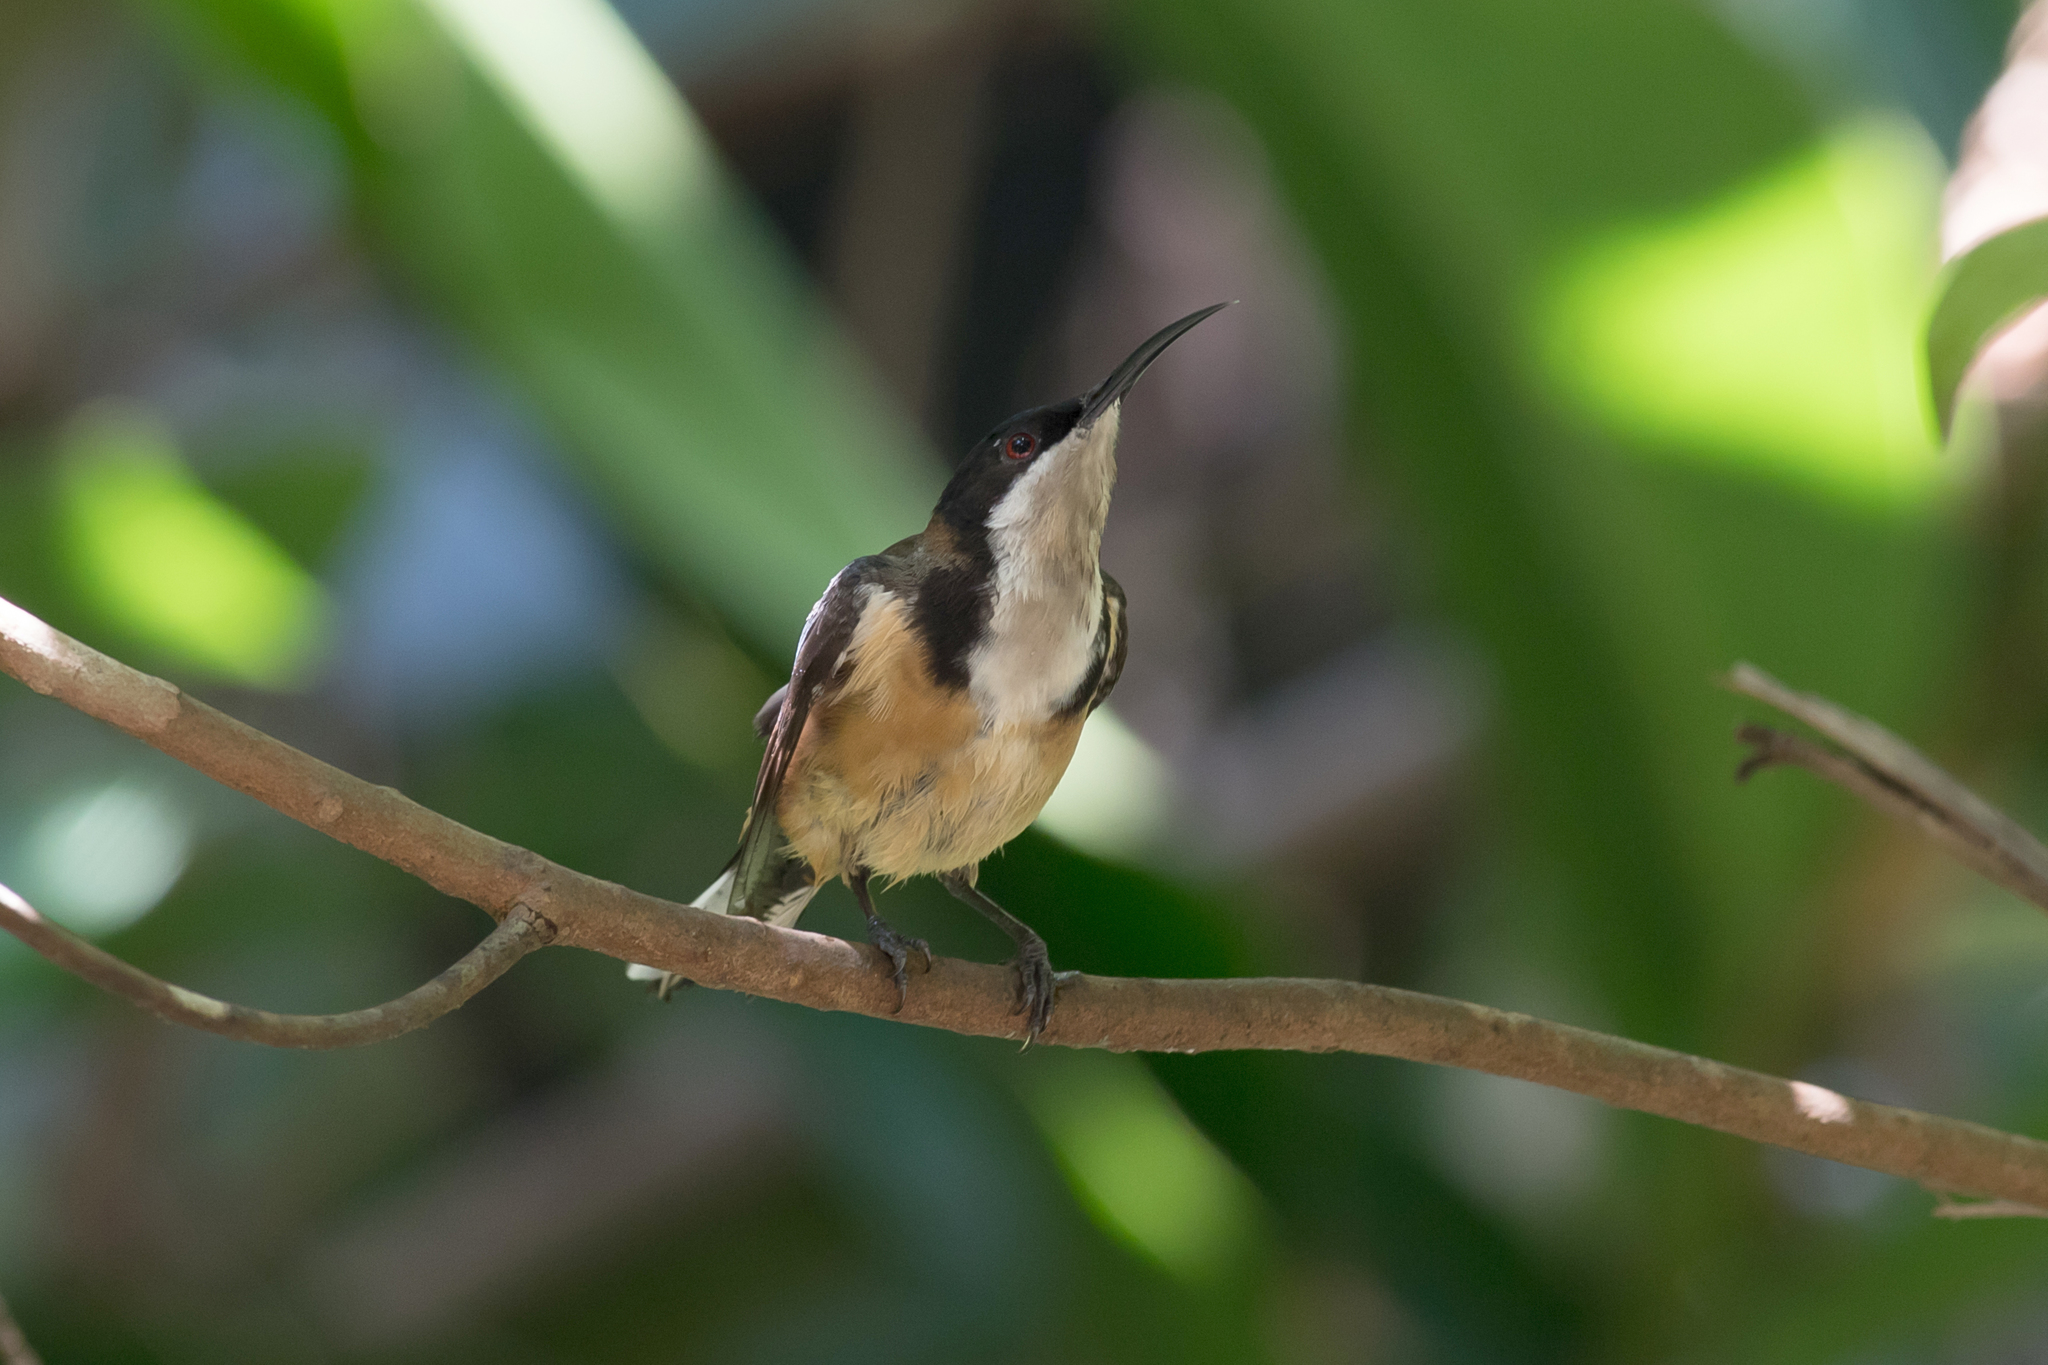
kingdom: Animalia
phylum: Chordata
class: Aves
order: Passeriformes
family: Meliphagidae
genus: Acanthorhynchus
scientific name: Acanthorhynchus tenuirostris
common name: Eastern spinebill
